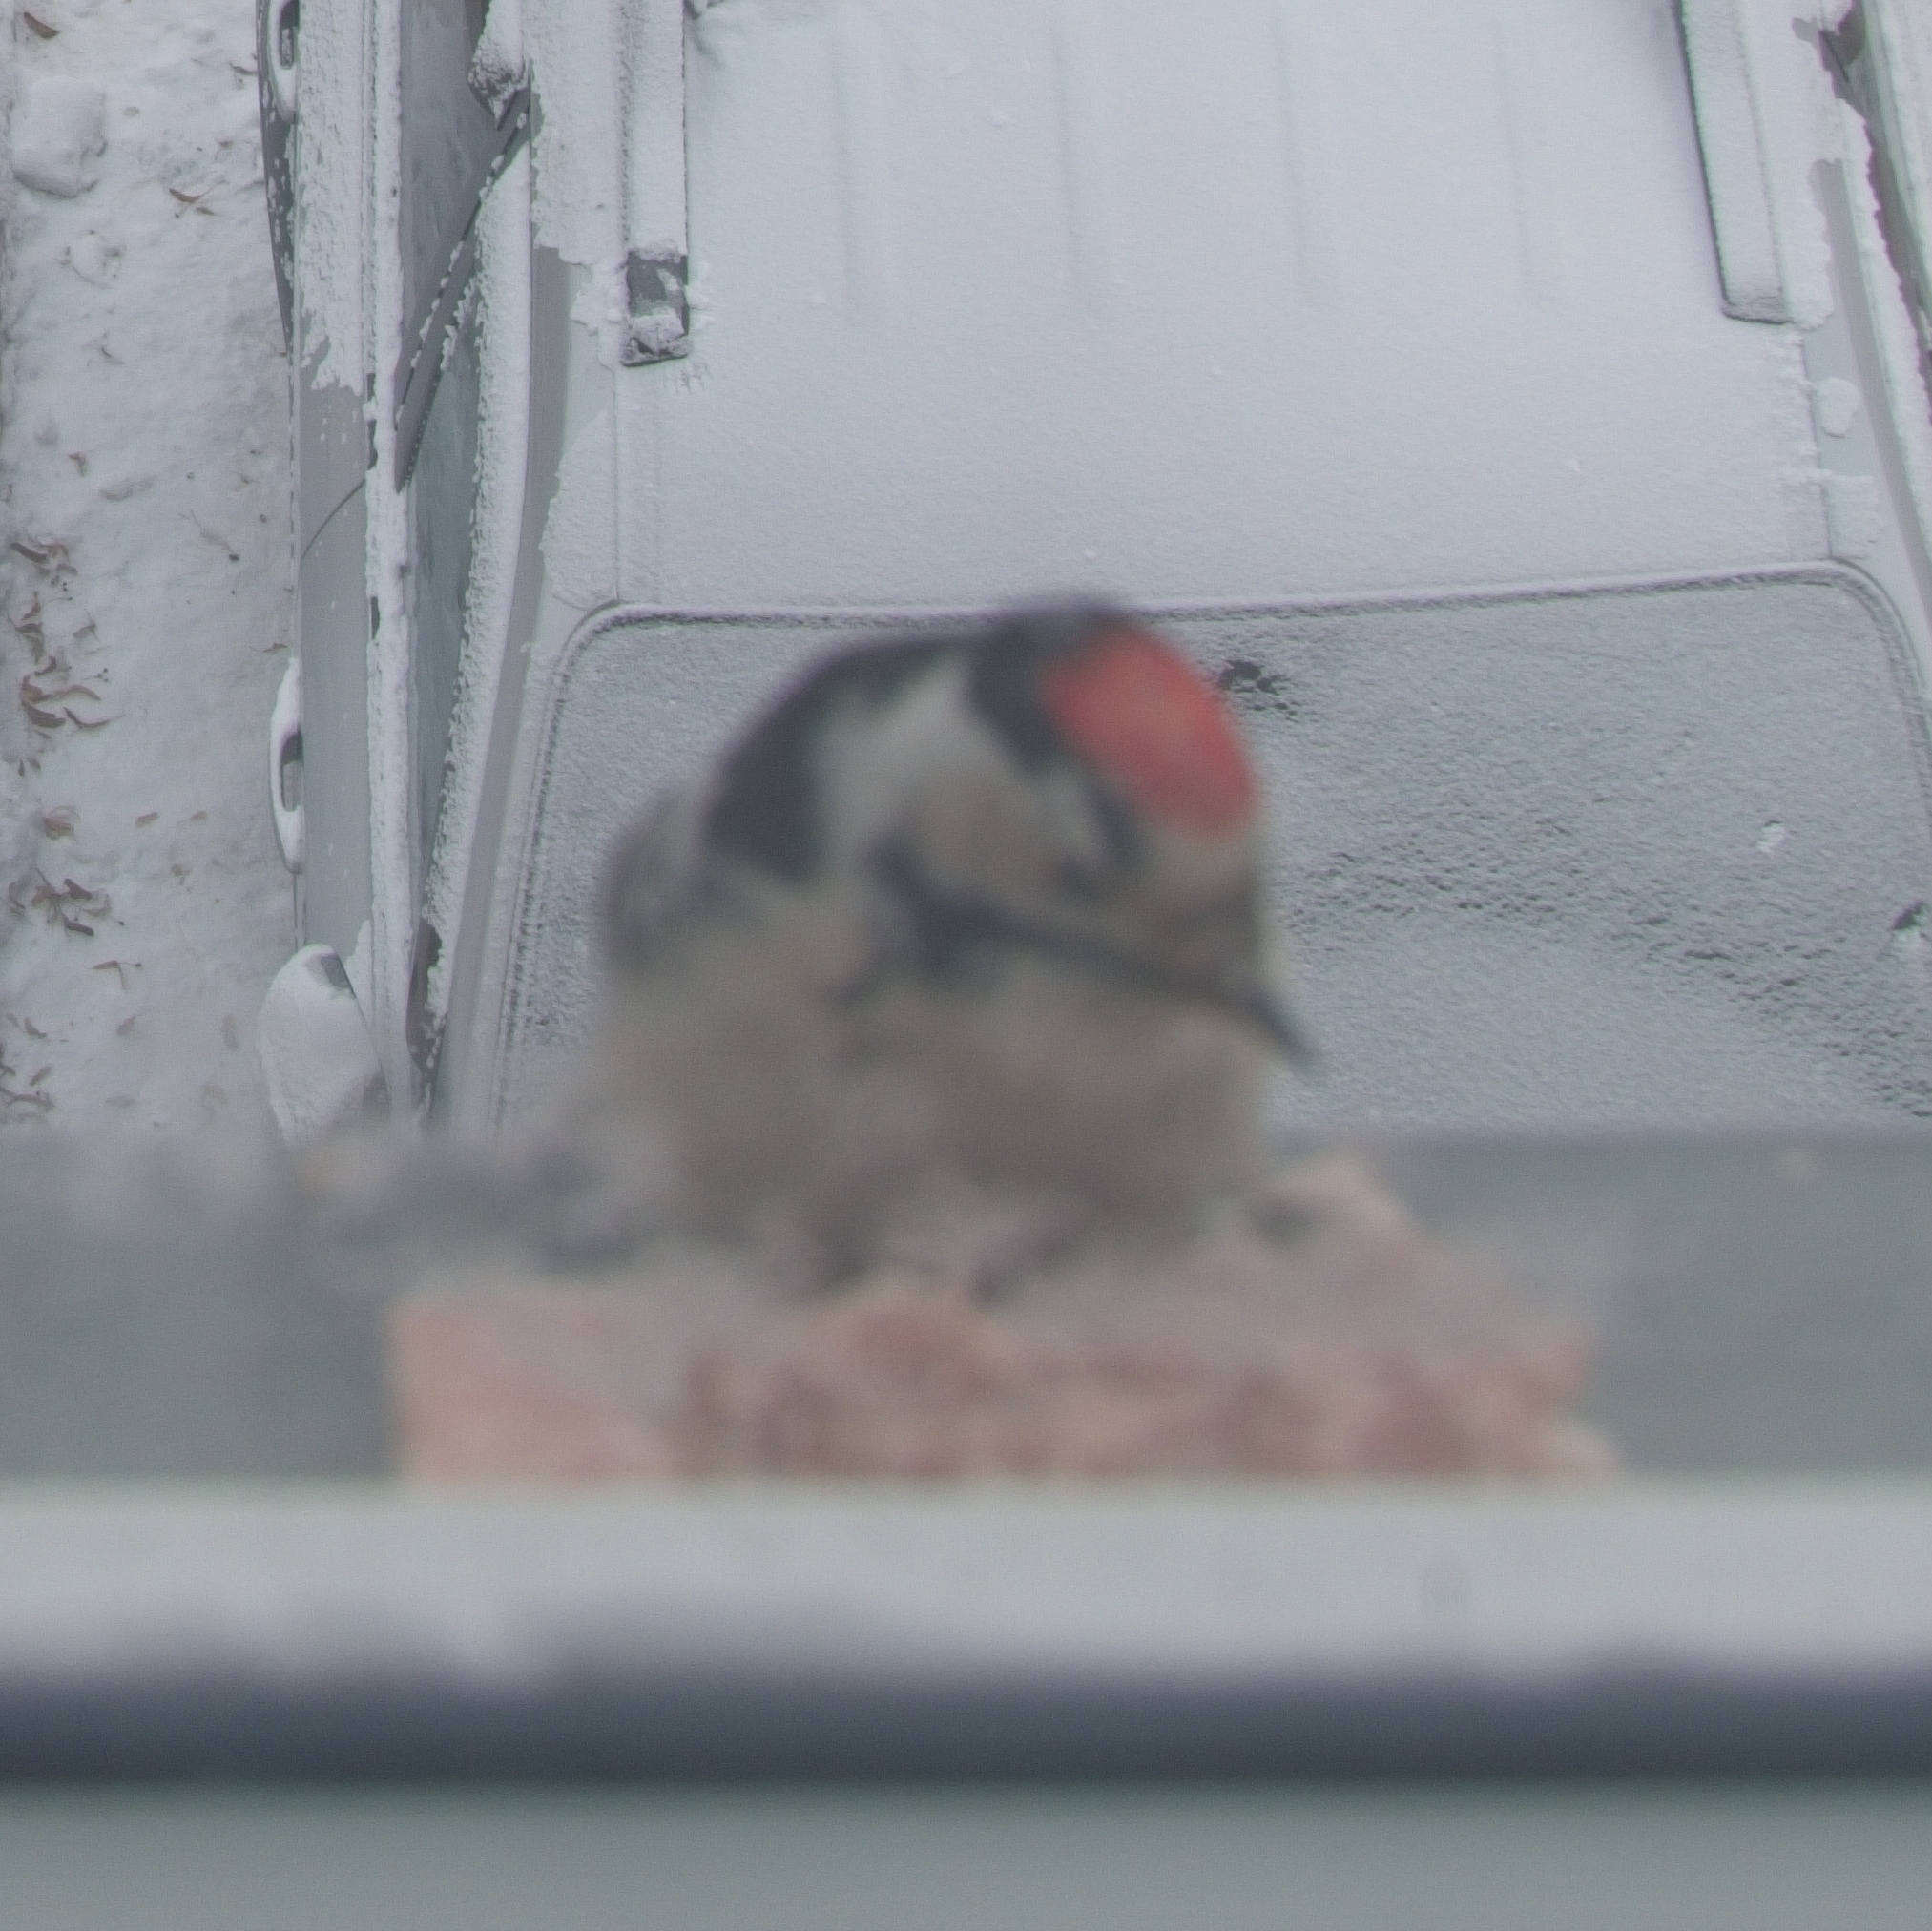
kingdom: Animalia
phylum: Chordata
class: Aves
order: Piciformes
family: Picidae
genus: Dryobates
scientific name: Dryobates minor
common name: Lesser spotted woodpecker
